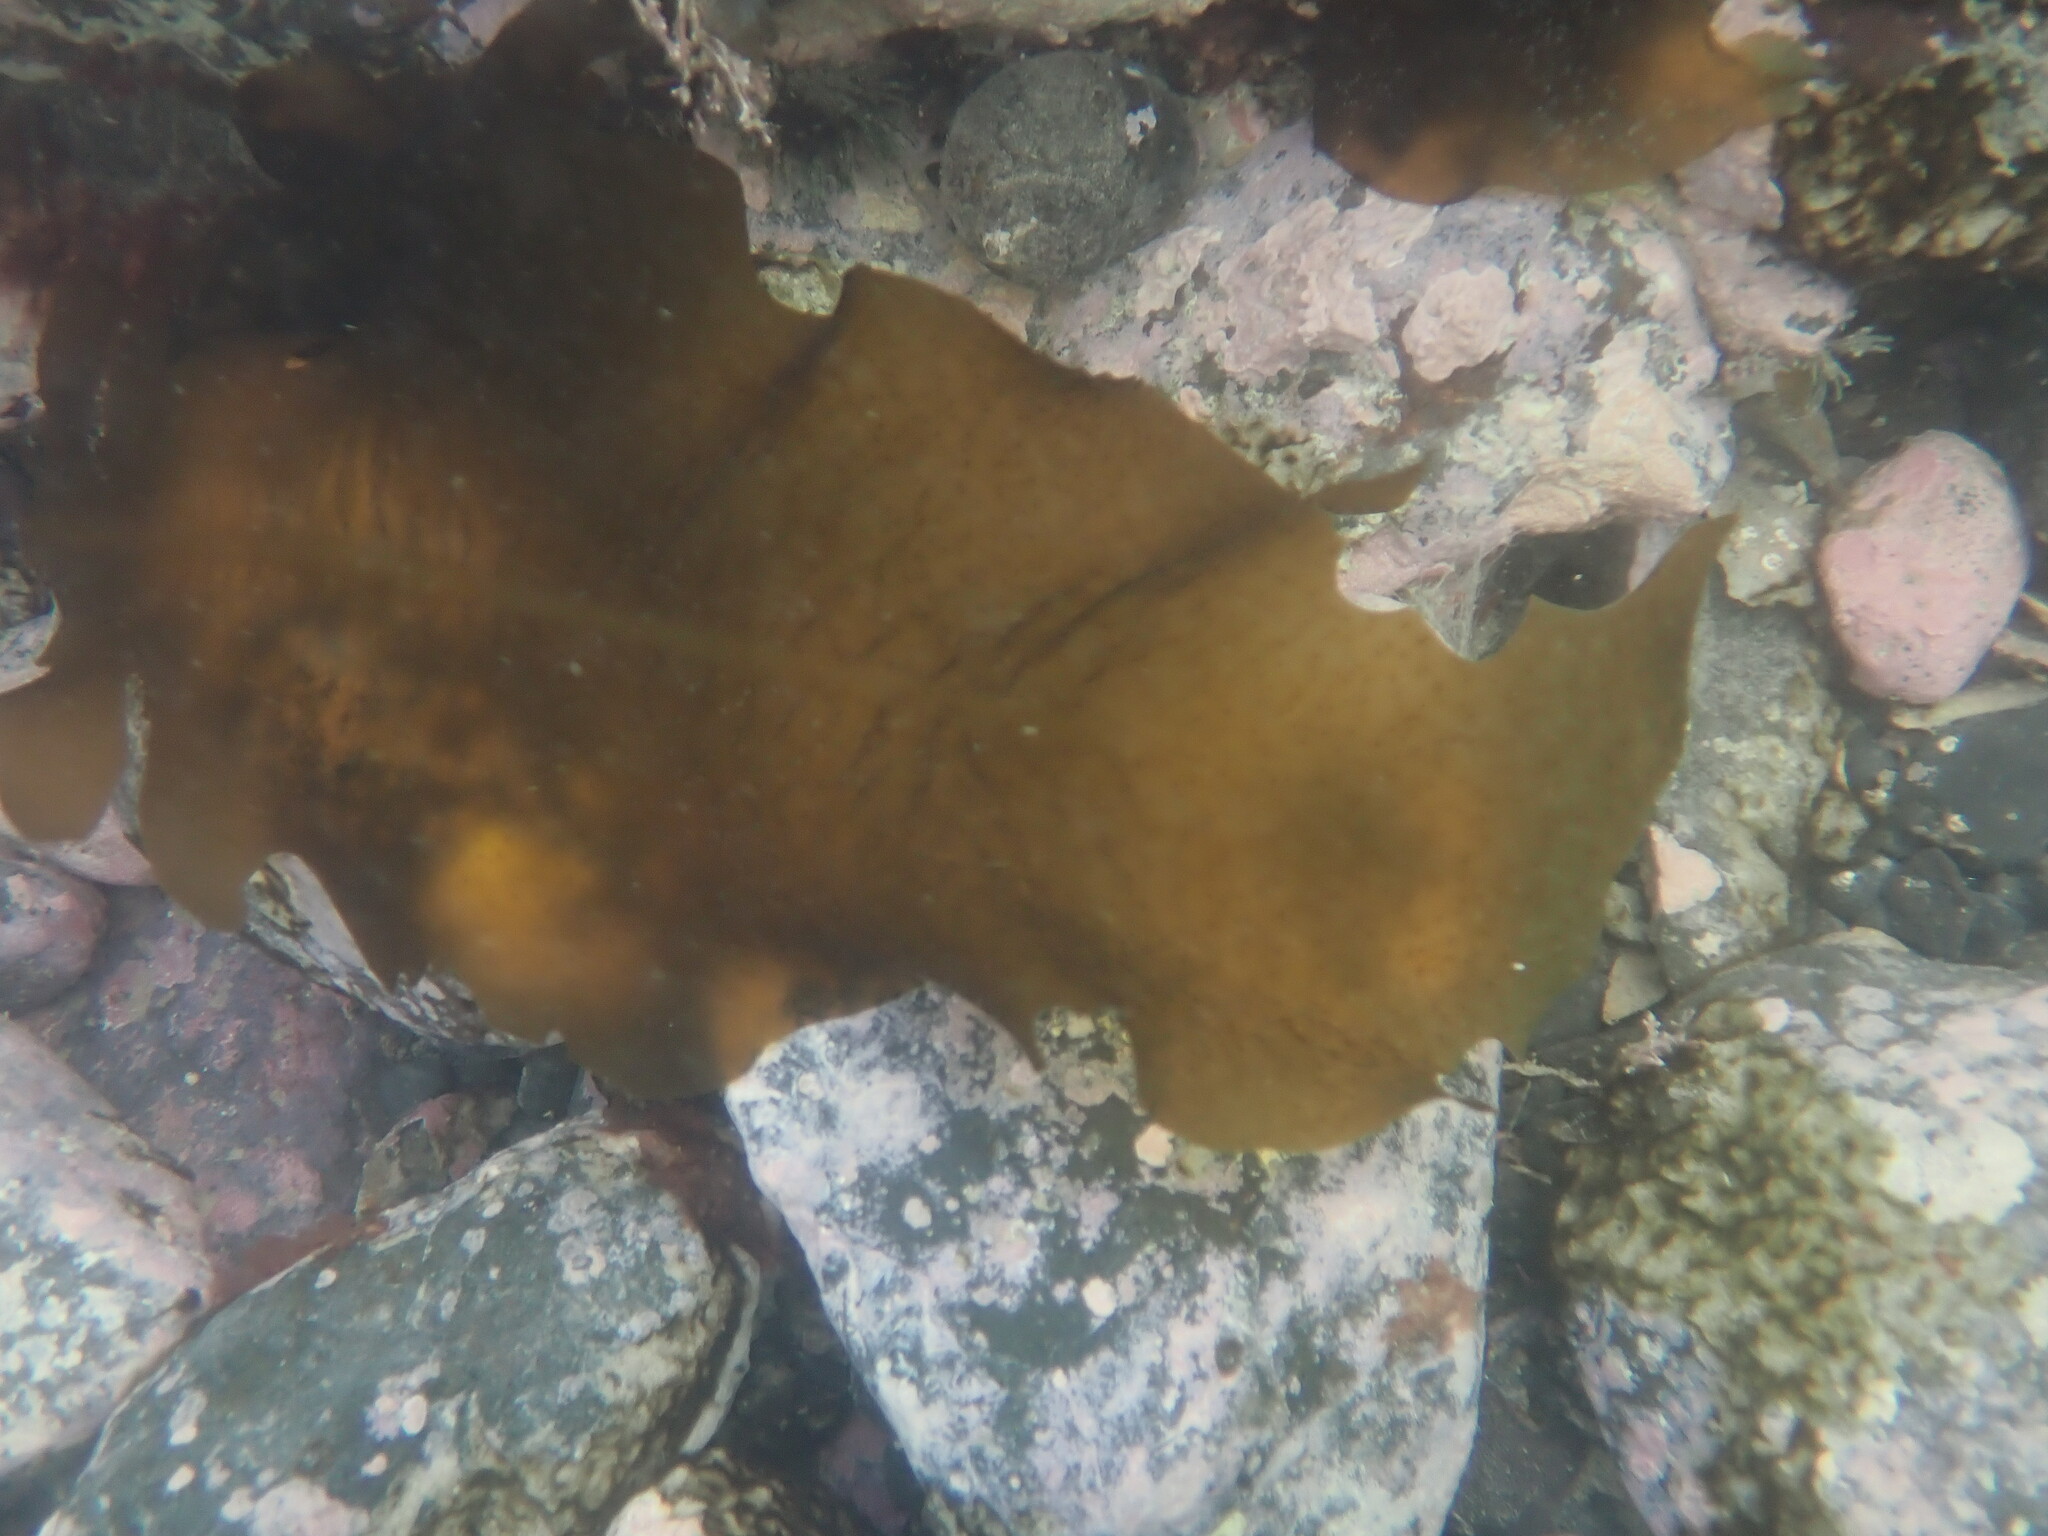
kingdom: Chromista
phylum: Ochrophyta
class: Phaeophyceae
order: Laminariales
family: Alariaceae
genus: Undaria
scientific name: Undaria pinnatifida
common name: Asian kelp
